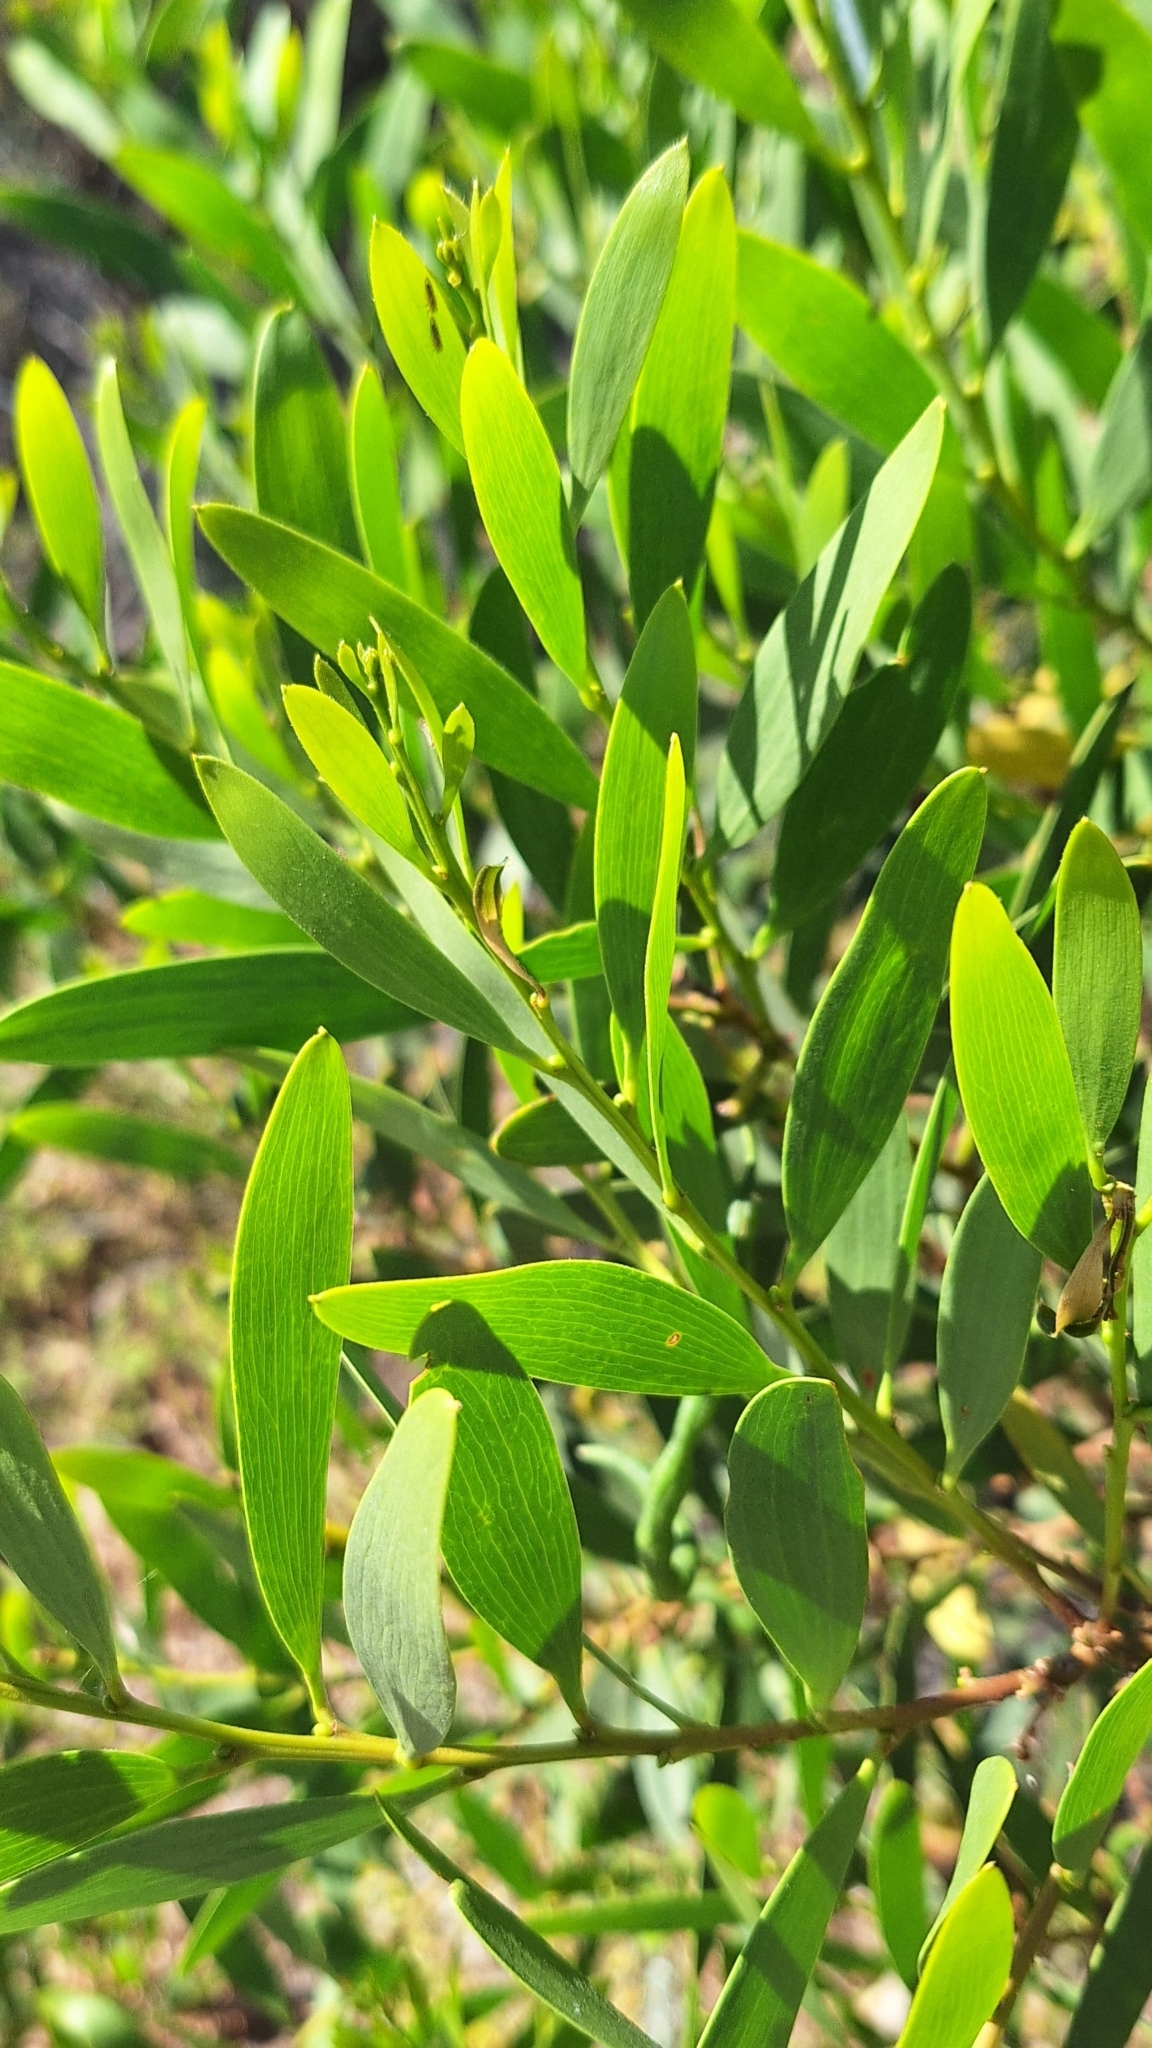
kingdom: Plantae
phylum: Tracheophyta
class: Magnoliopsida
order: Fabales
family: Fabaceae
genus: Acacia
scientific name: Acacia longifolia
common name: Sydney golden wattle
